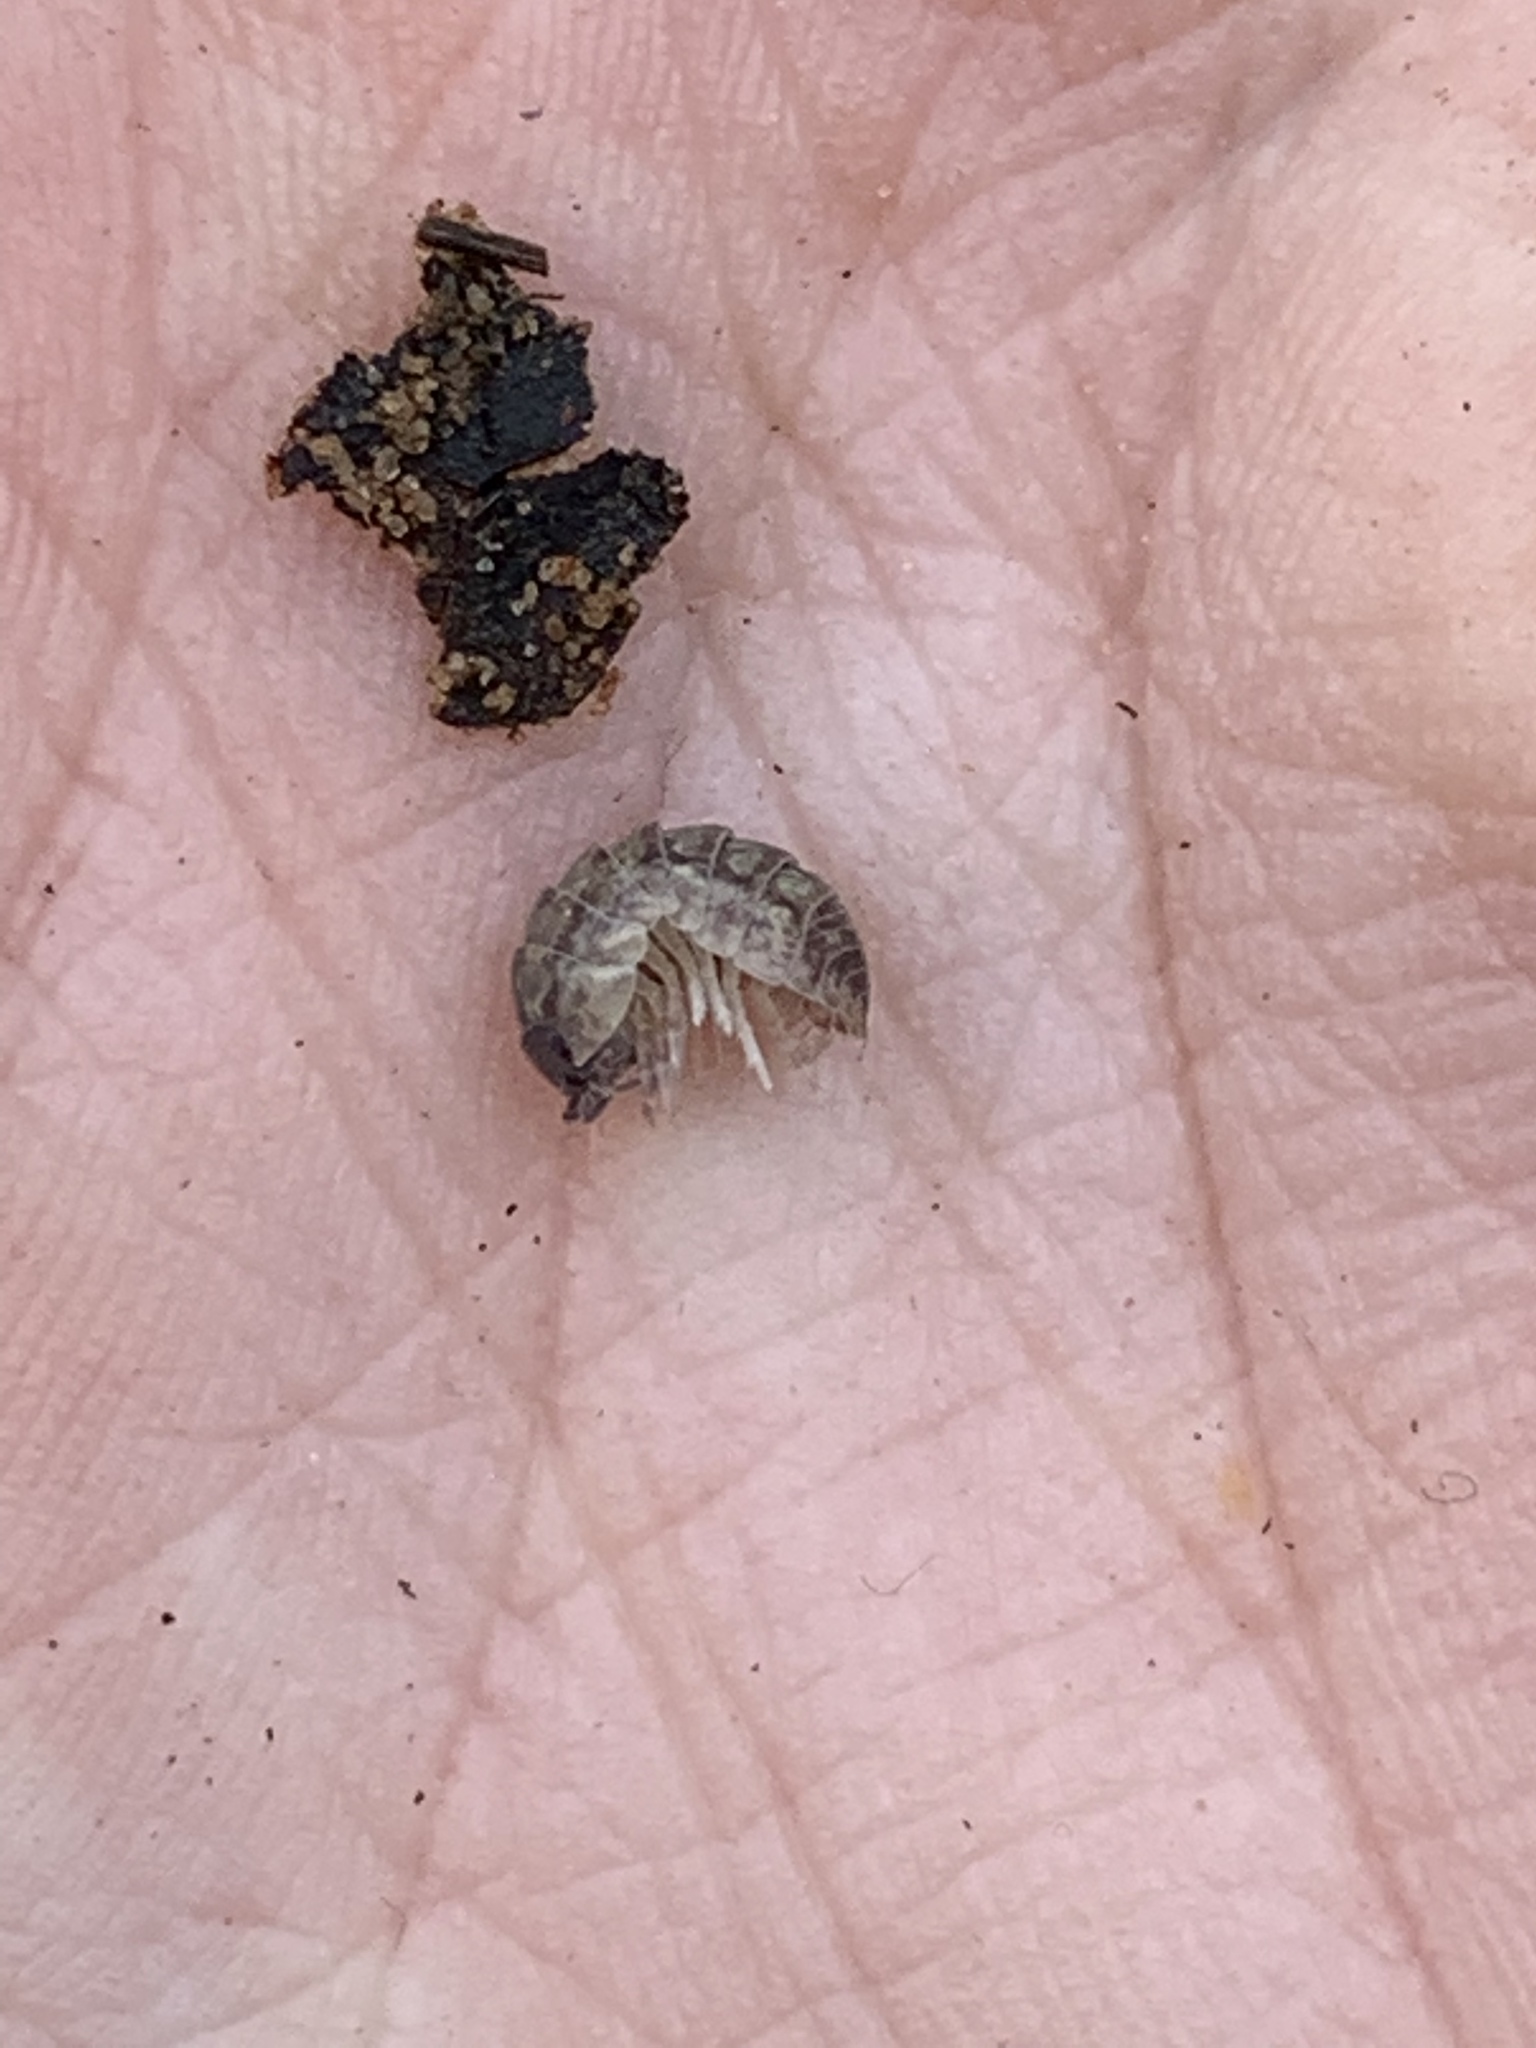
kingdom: Animalia
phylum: Arthropoda
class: Malacostraca
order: Isopoda
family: Armadillidiidae
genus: Armadillidium
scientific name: Armadillidium vulgare
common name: Common pill woodlouse
